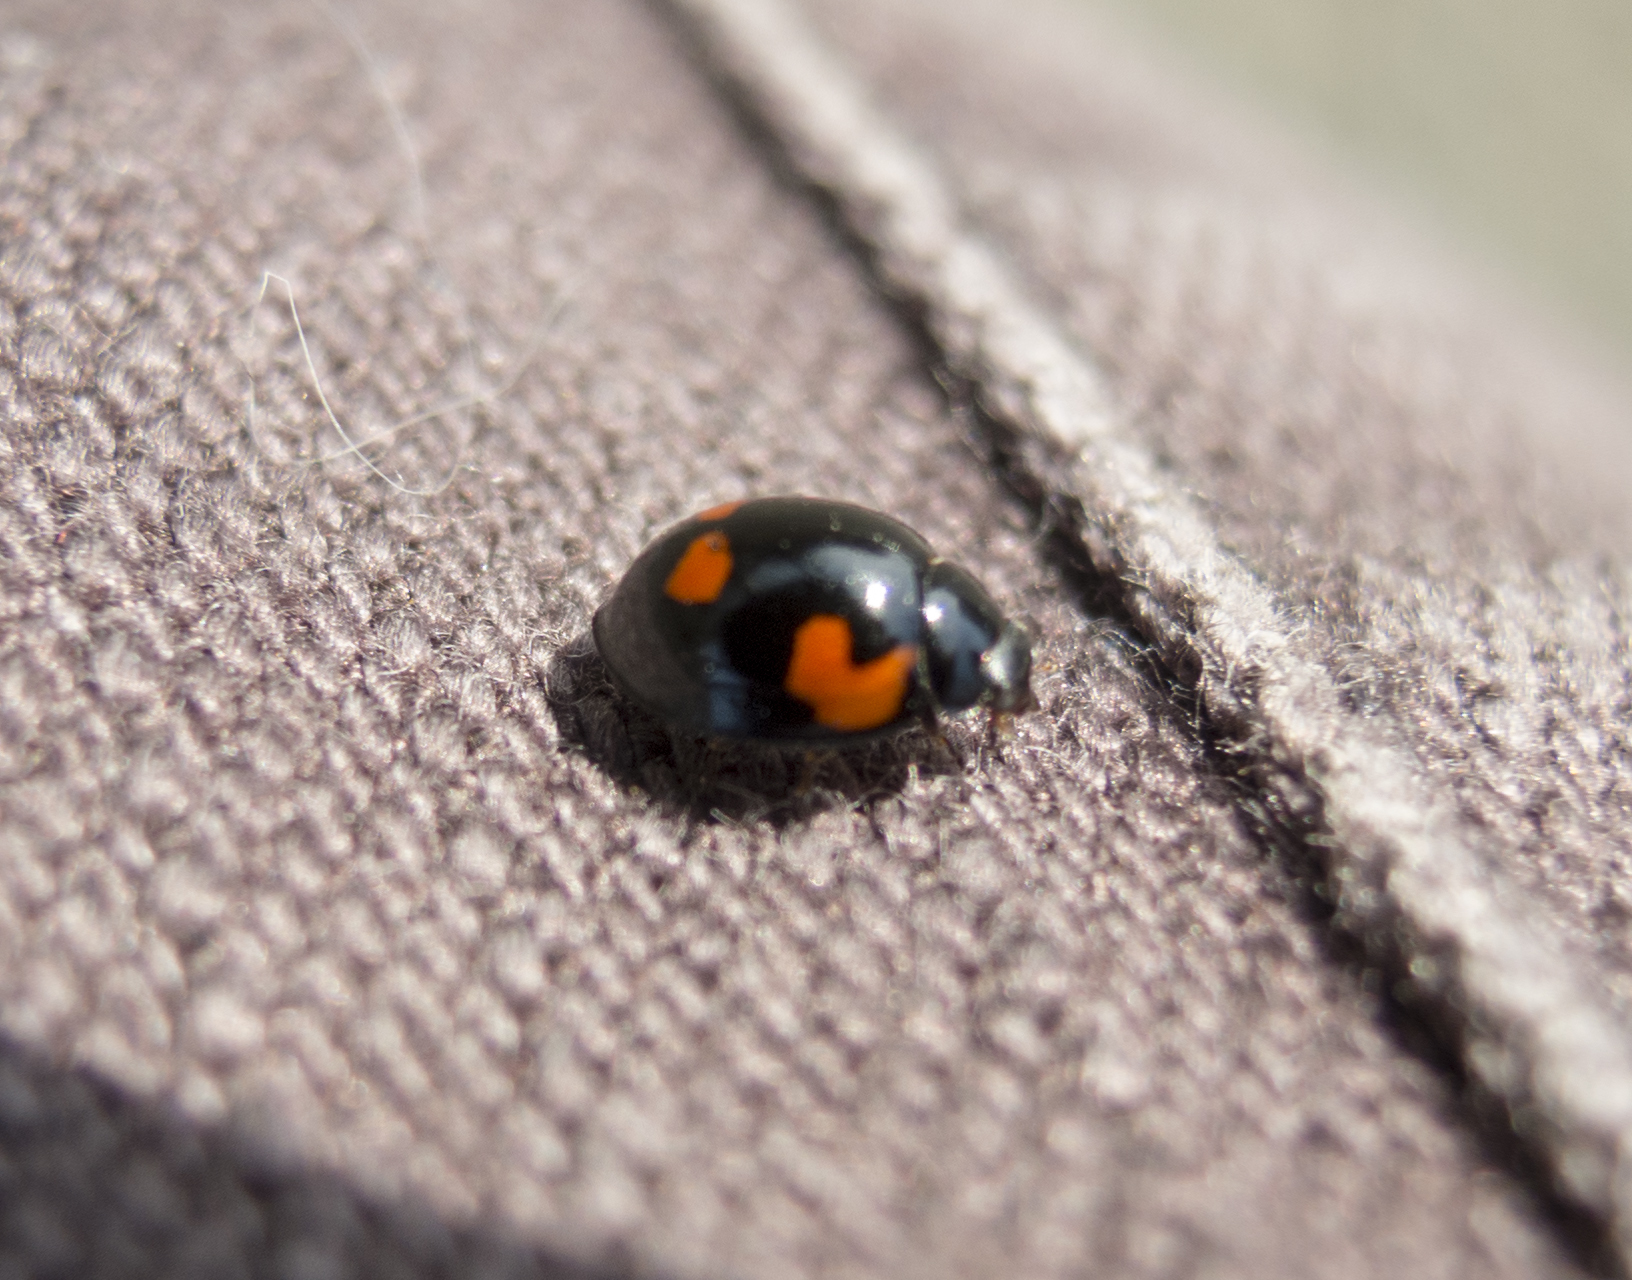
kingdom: Animalia
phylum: Arthropoda
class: Insecta
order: Coleoptera
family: Coccinellidae
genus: Brumus
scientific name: Brumus quadripustulatus
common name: Ladybird beetle
